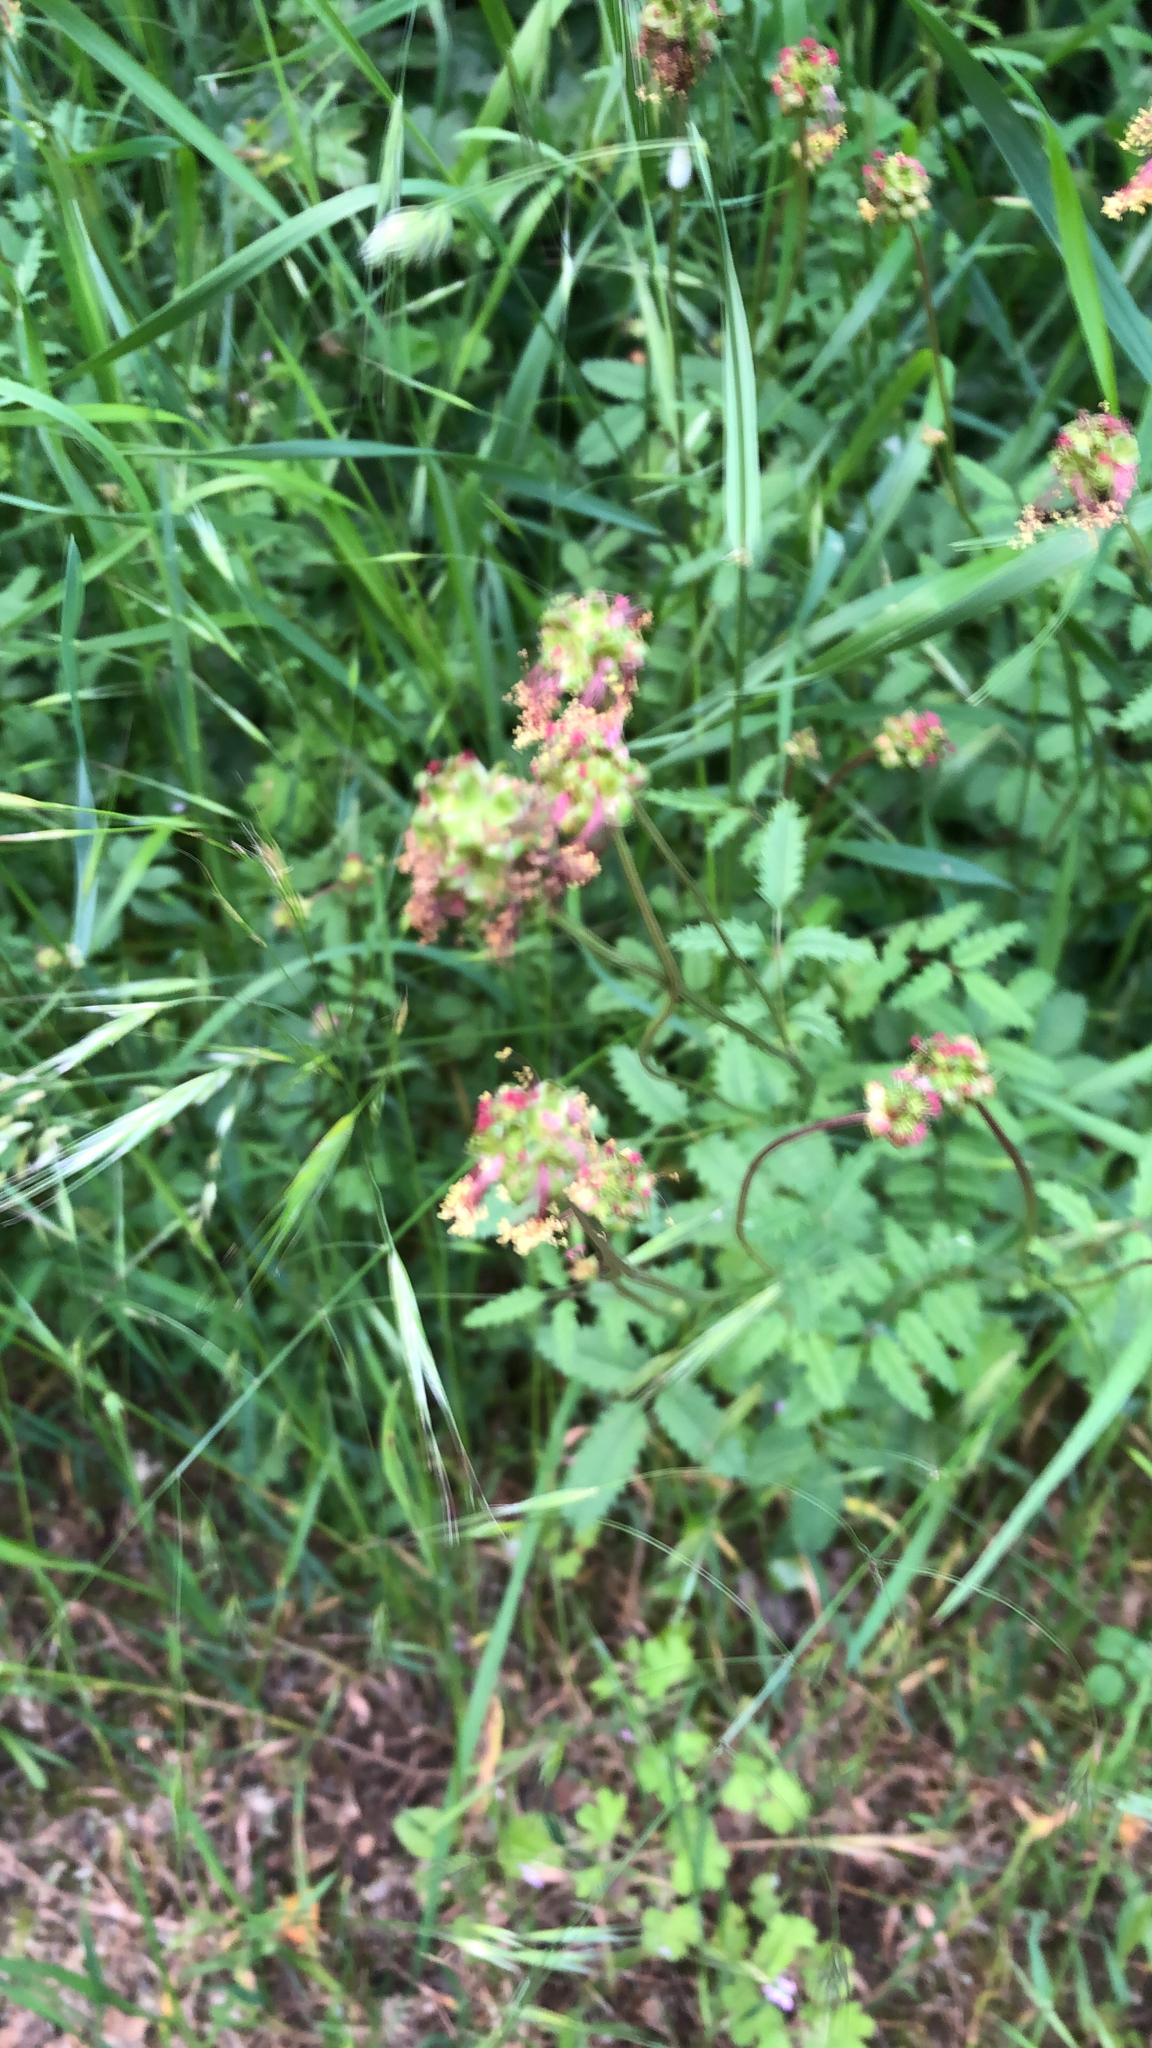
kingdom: Plantae
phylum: Tracheophyta
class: Magnoliopsida
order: Rosales
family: Rosaceae
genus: Poterium
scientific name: Poterium sanguisorba
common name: Salad burnet
